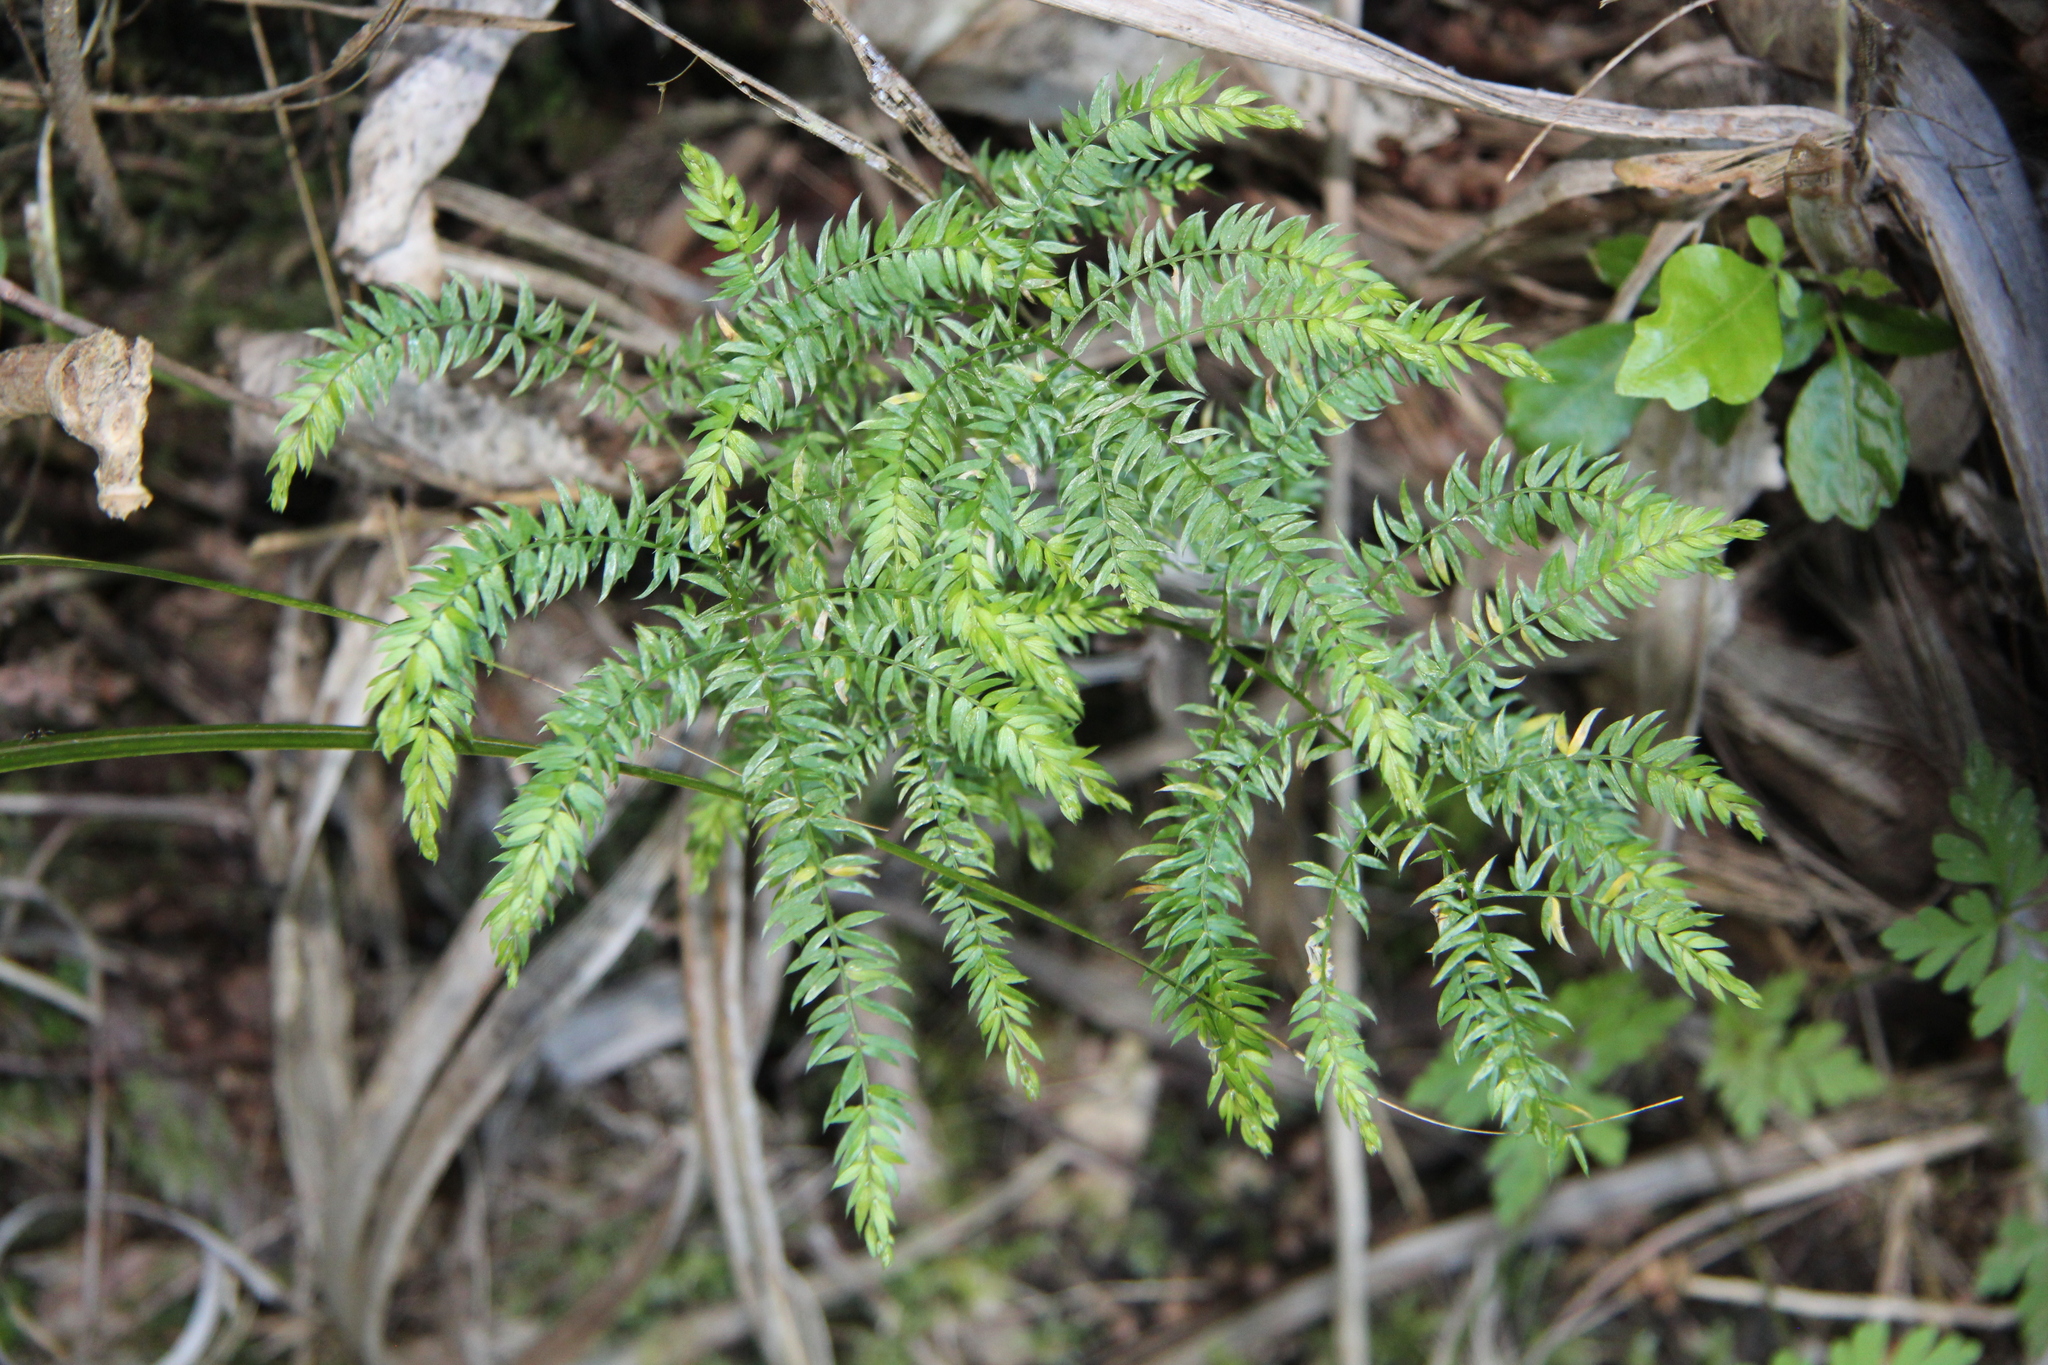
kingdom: Plantae
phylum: Tracheophyta
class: Liliopsida
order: Asparagales
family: Asparagaceae
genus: Asparagus
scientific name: Asparagus scandens
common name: Asparagus-fern
